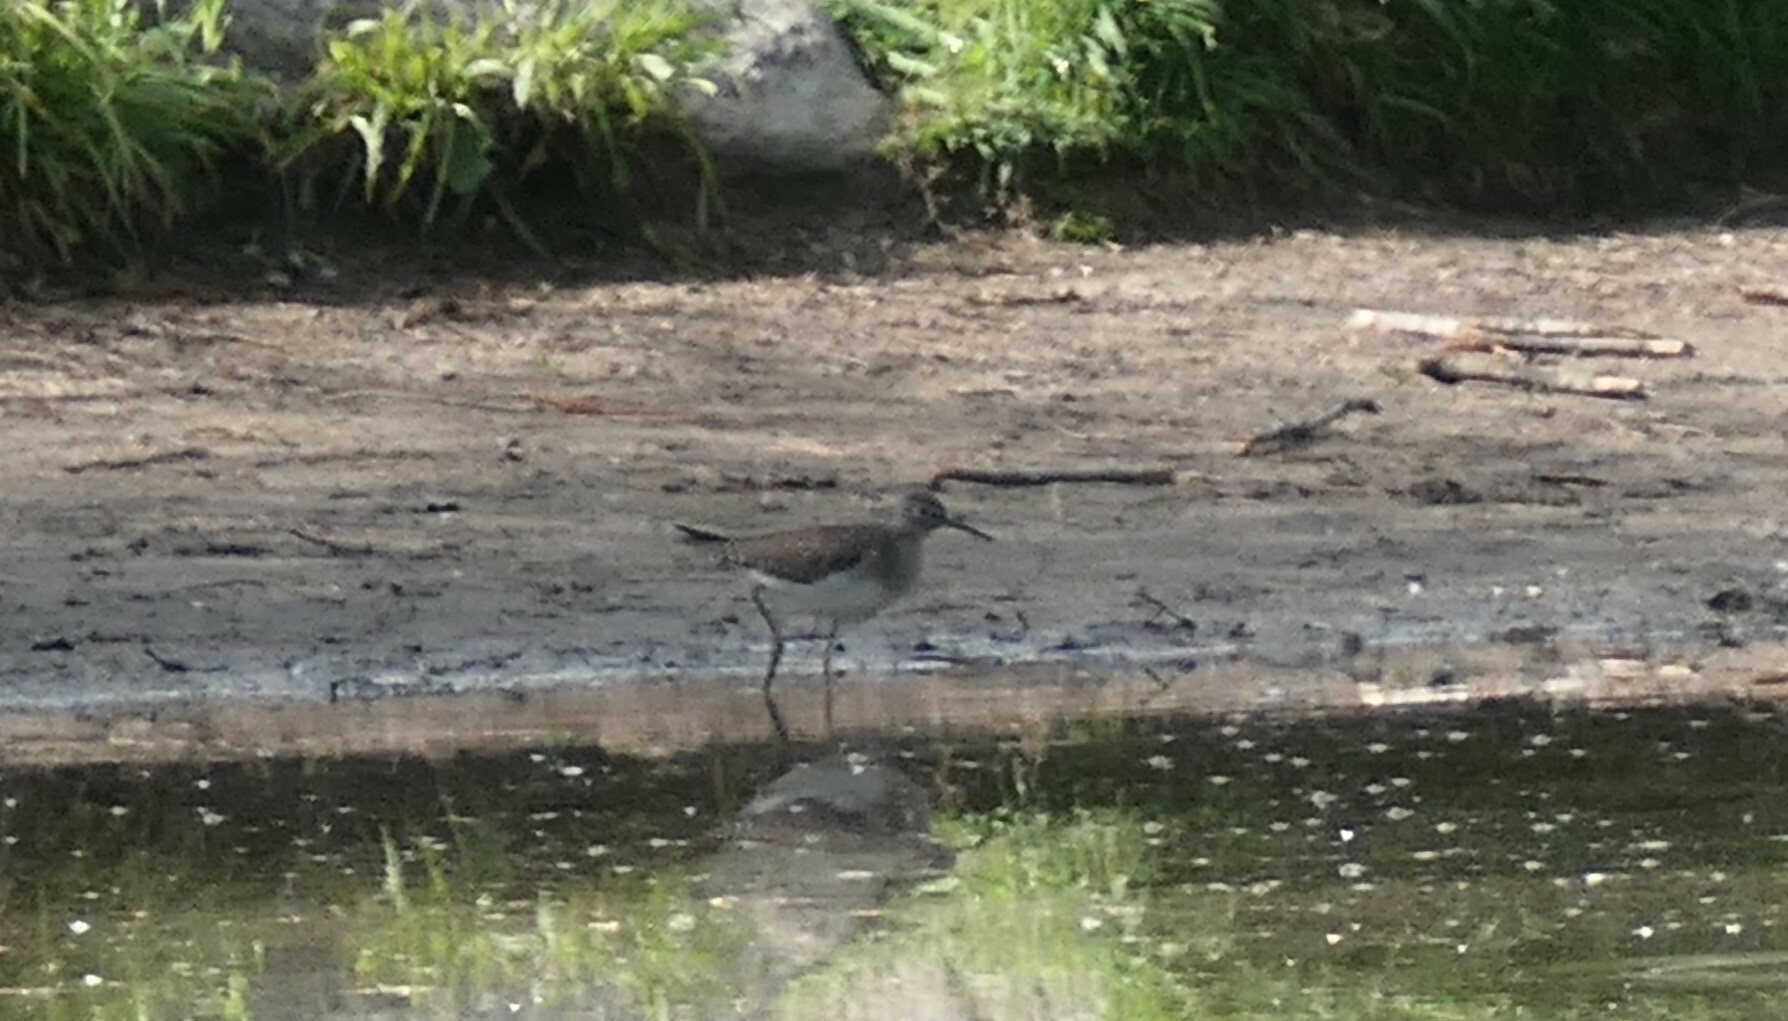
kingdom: Animalia
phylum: Chordata
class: Aves
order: Charadriiformes
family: Scolopacidae
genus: Tringa
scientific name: Tringa solitaria
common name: Solitary sandpiper
